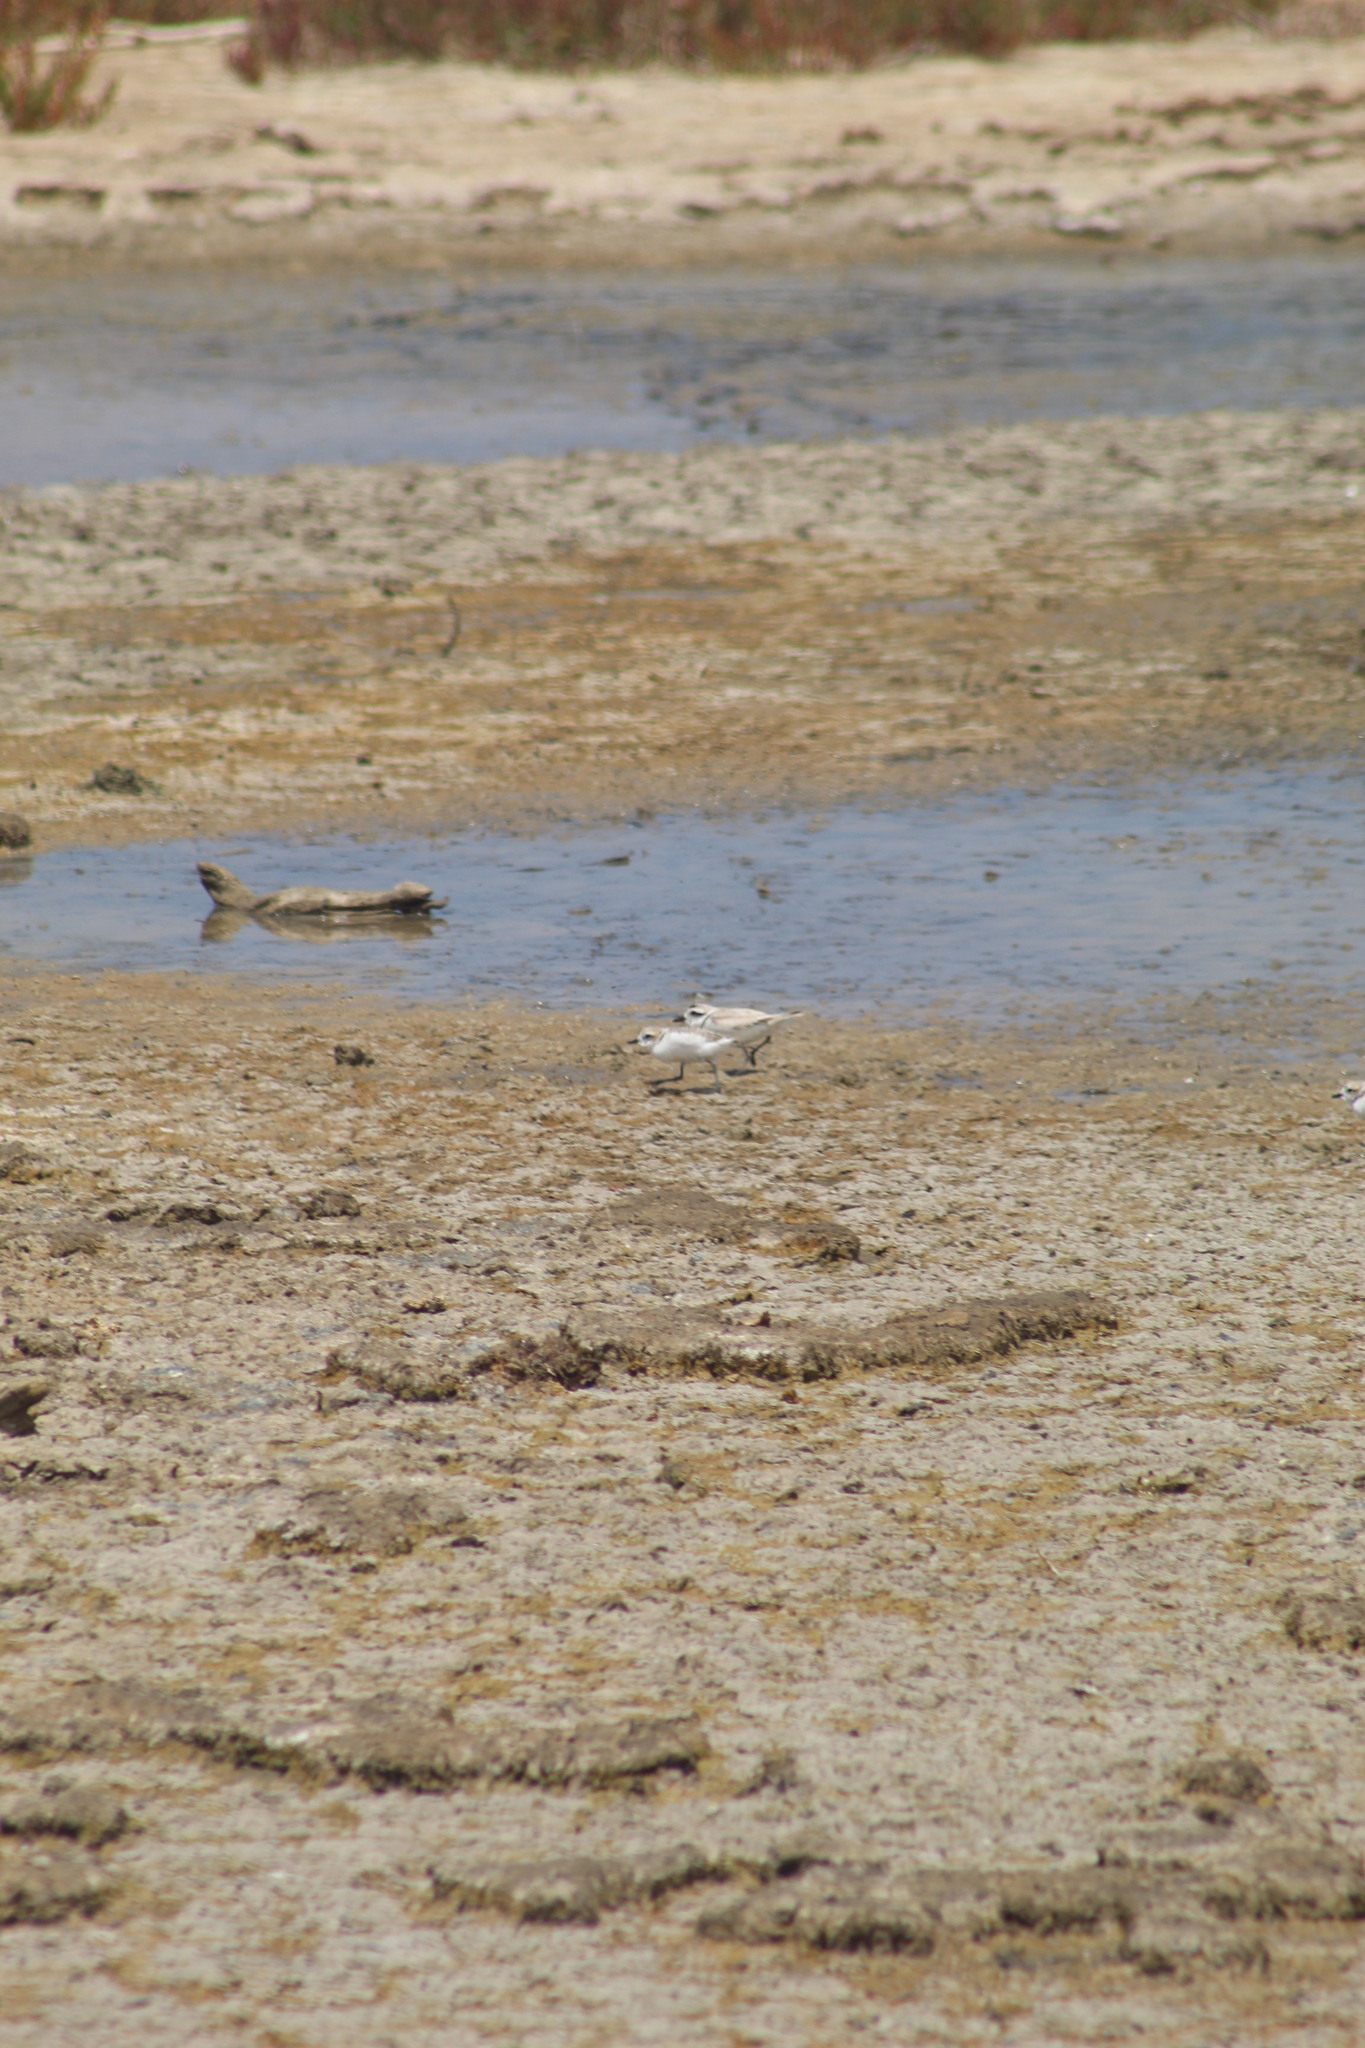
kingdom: Animalia
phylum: Chordata
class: Aves
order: Charadriiformes
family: Charadriidae
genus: Anarhynchus
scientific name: Anarhynchus
